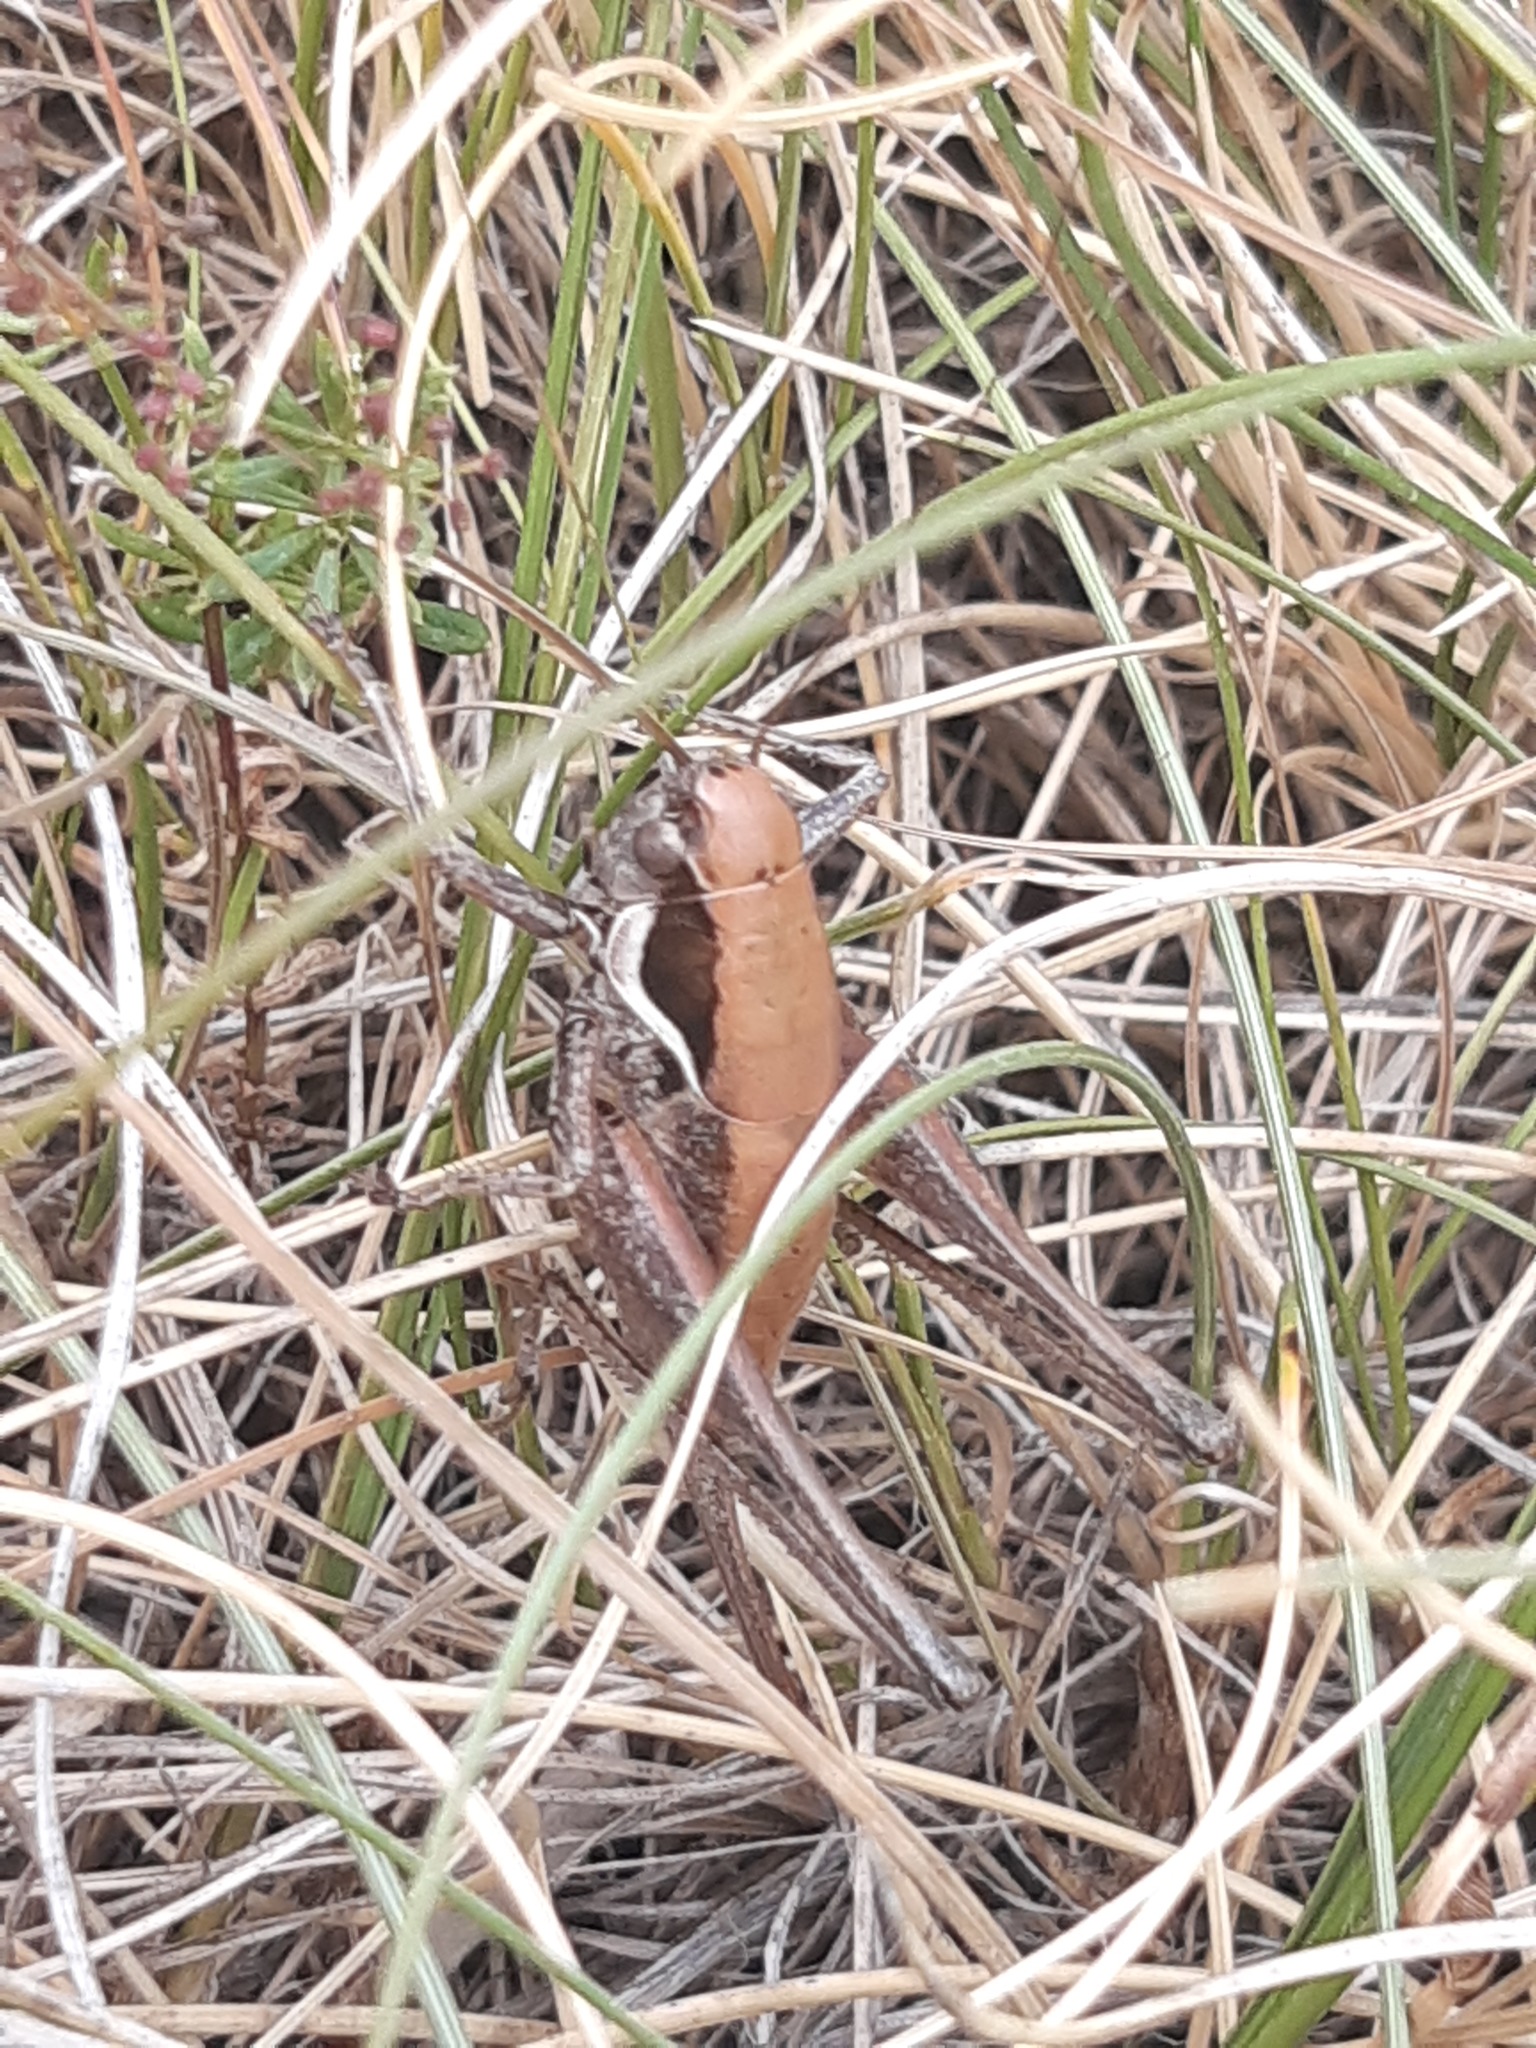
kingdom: Animalia
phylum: Arthropoda
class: Insecta
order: Orthoptera
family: Tettigoniidae
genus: Pholidoptera
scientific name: Pholidoptera fallax
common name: Fischer's bush-cricket
